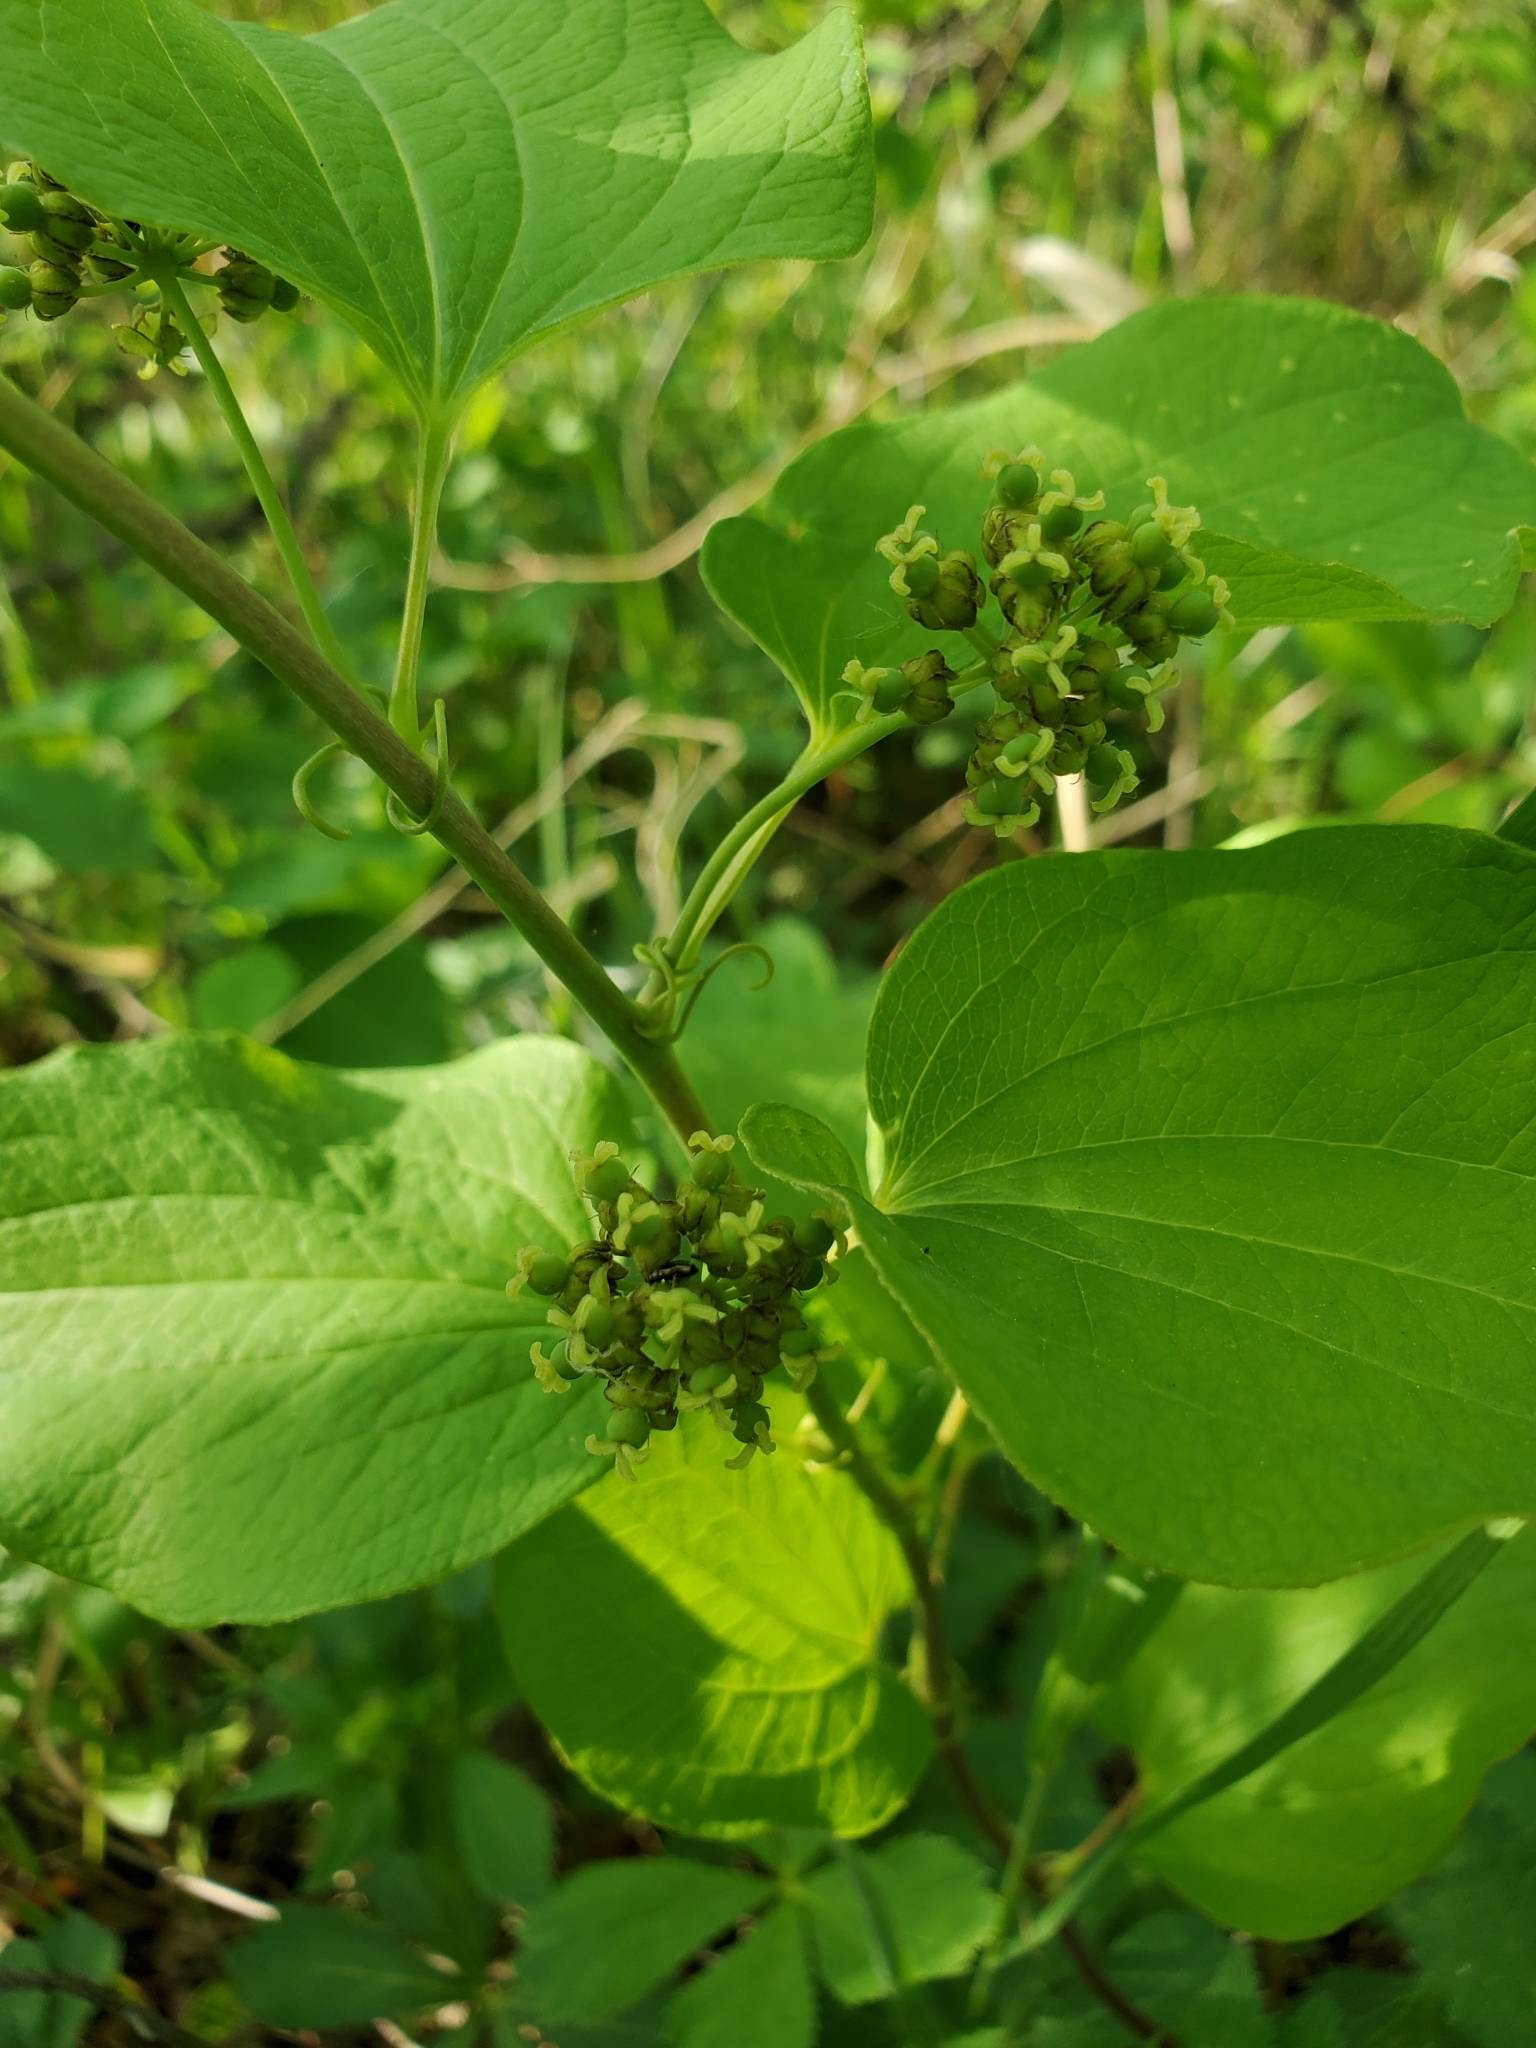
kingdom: Plantae
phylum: Tracheophyta
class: Liliopsida
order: Liliales
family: Smilacaceae
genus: Smilax
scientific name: Smilax lasioneura
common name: Blue ridge carrionflower
